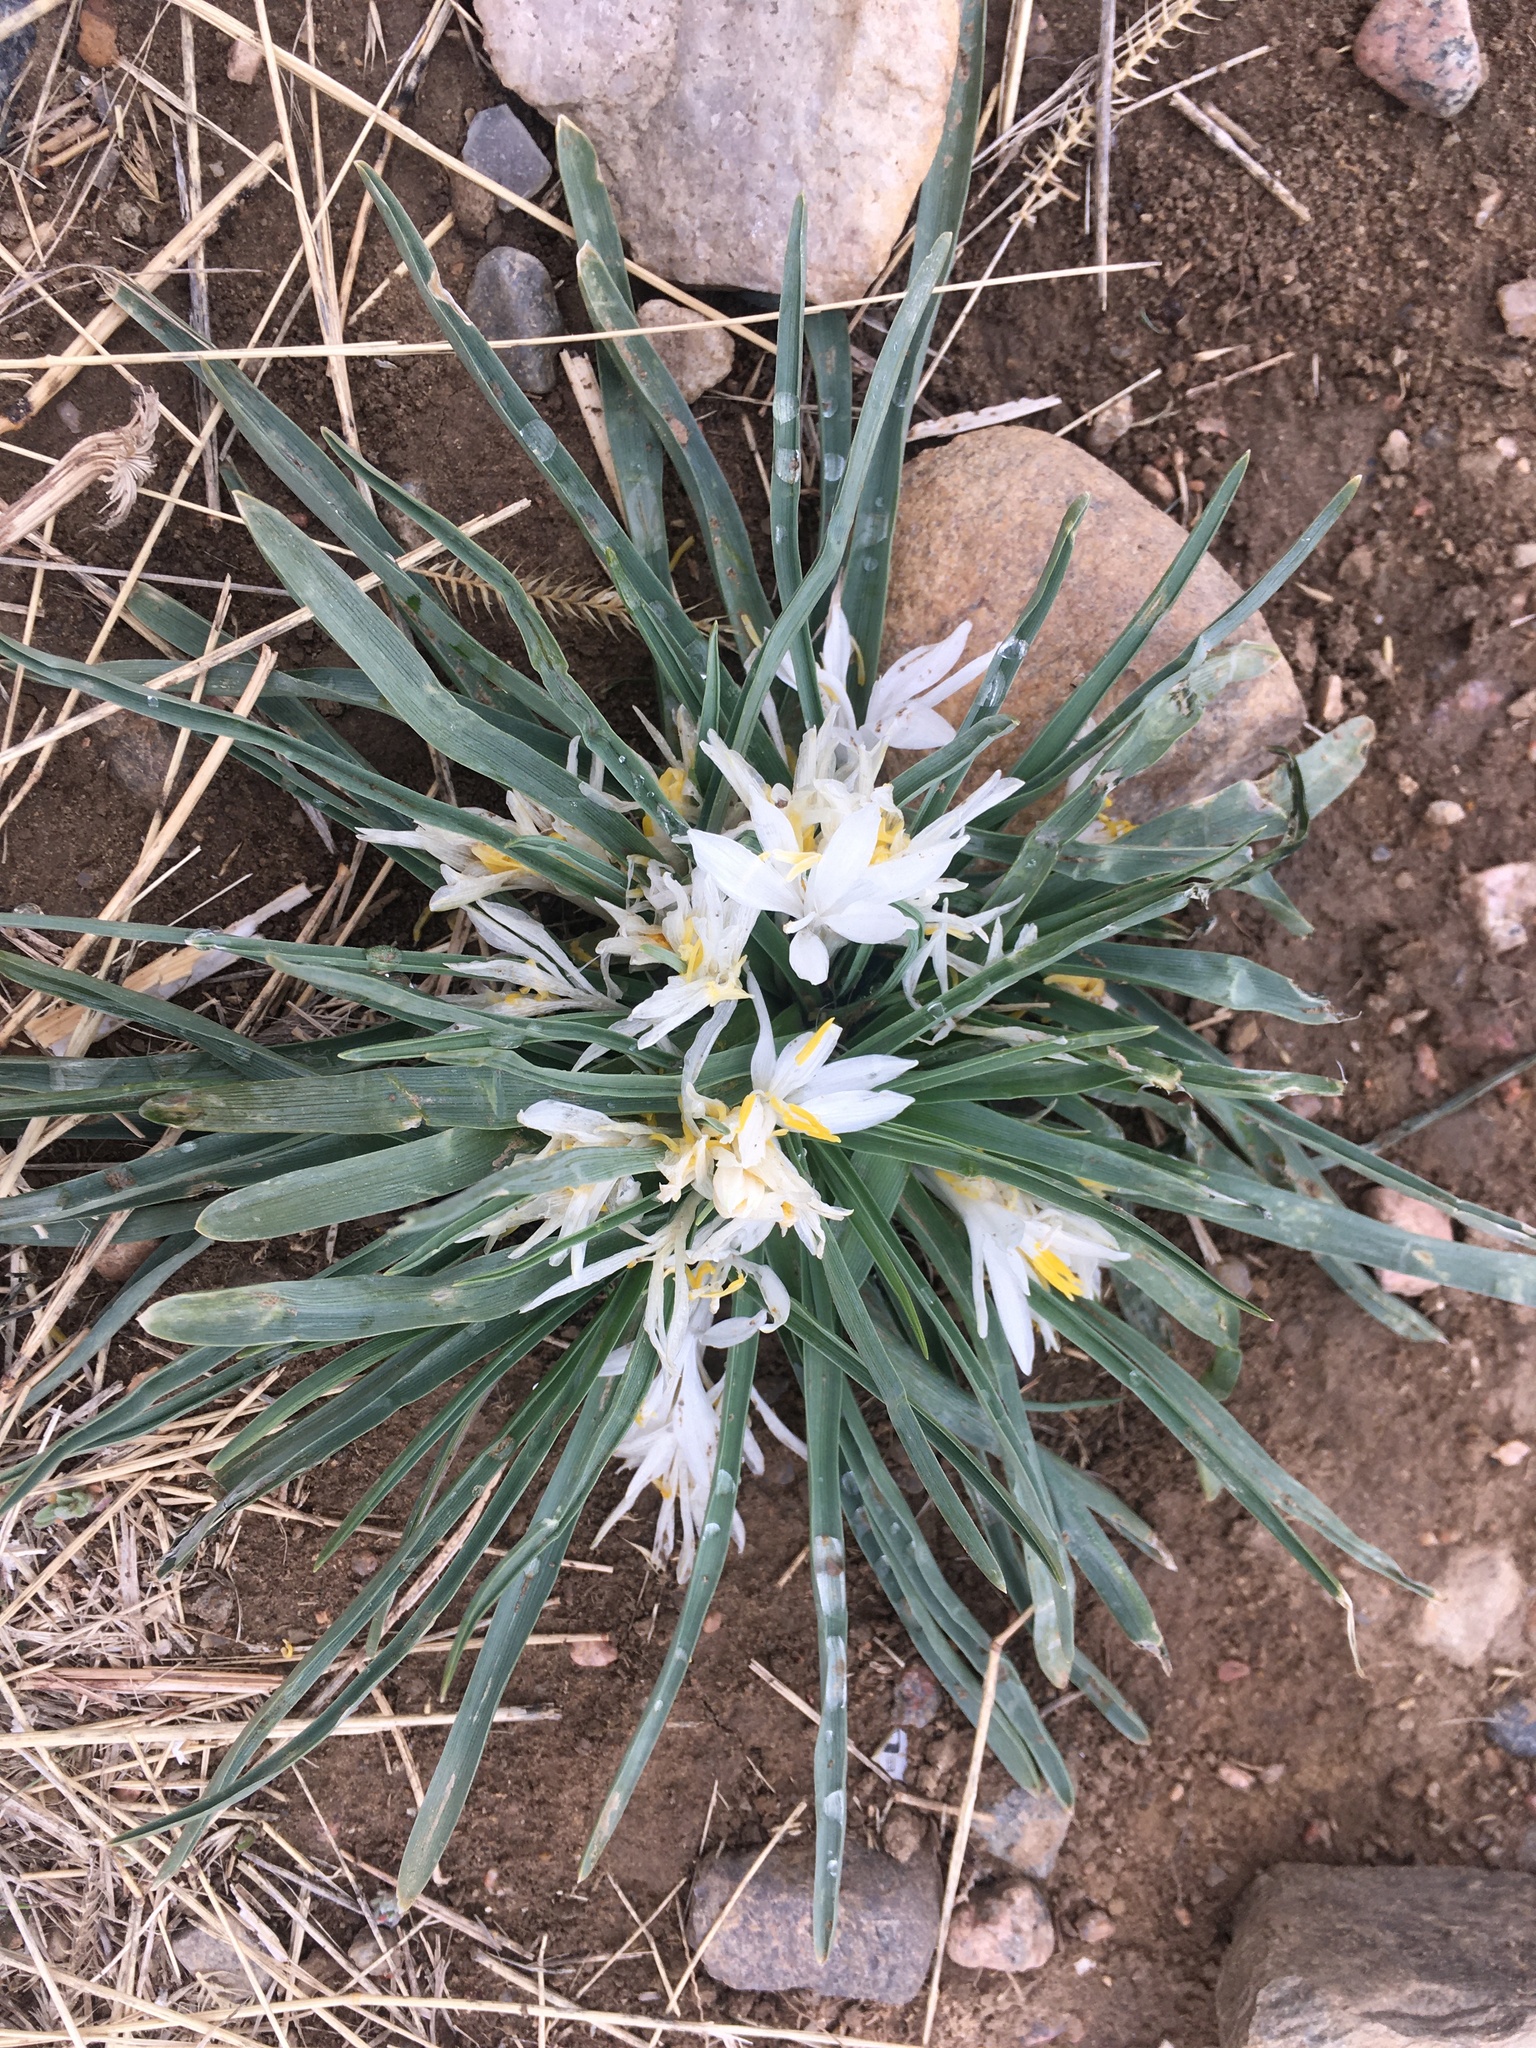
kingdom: Plantae
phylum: Tracheophyta
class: Liliopsida
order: Asparagales
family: Asparagaceae
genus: Leucocrinum
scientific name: Leucocrinum montanum
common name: Mountain-lily
